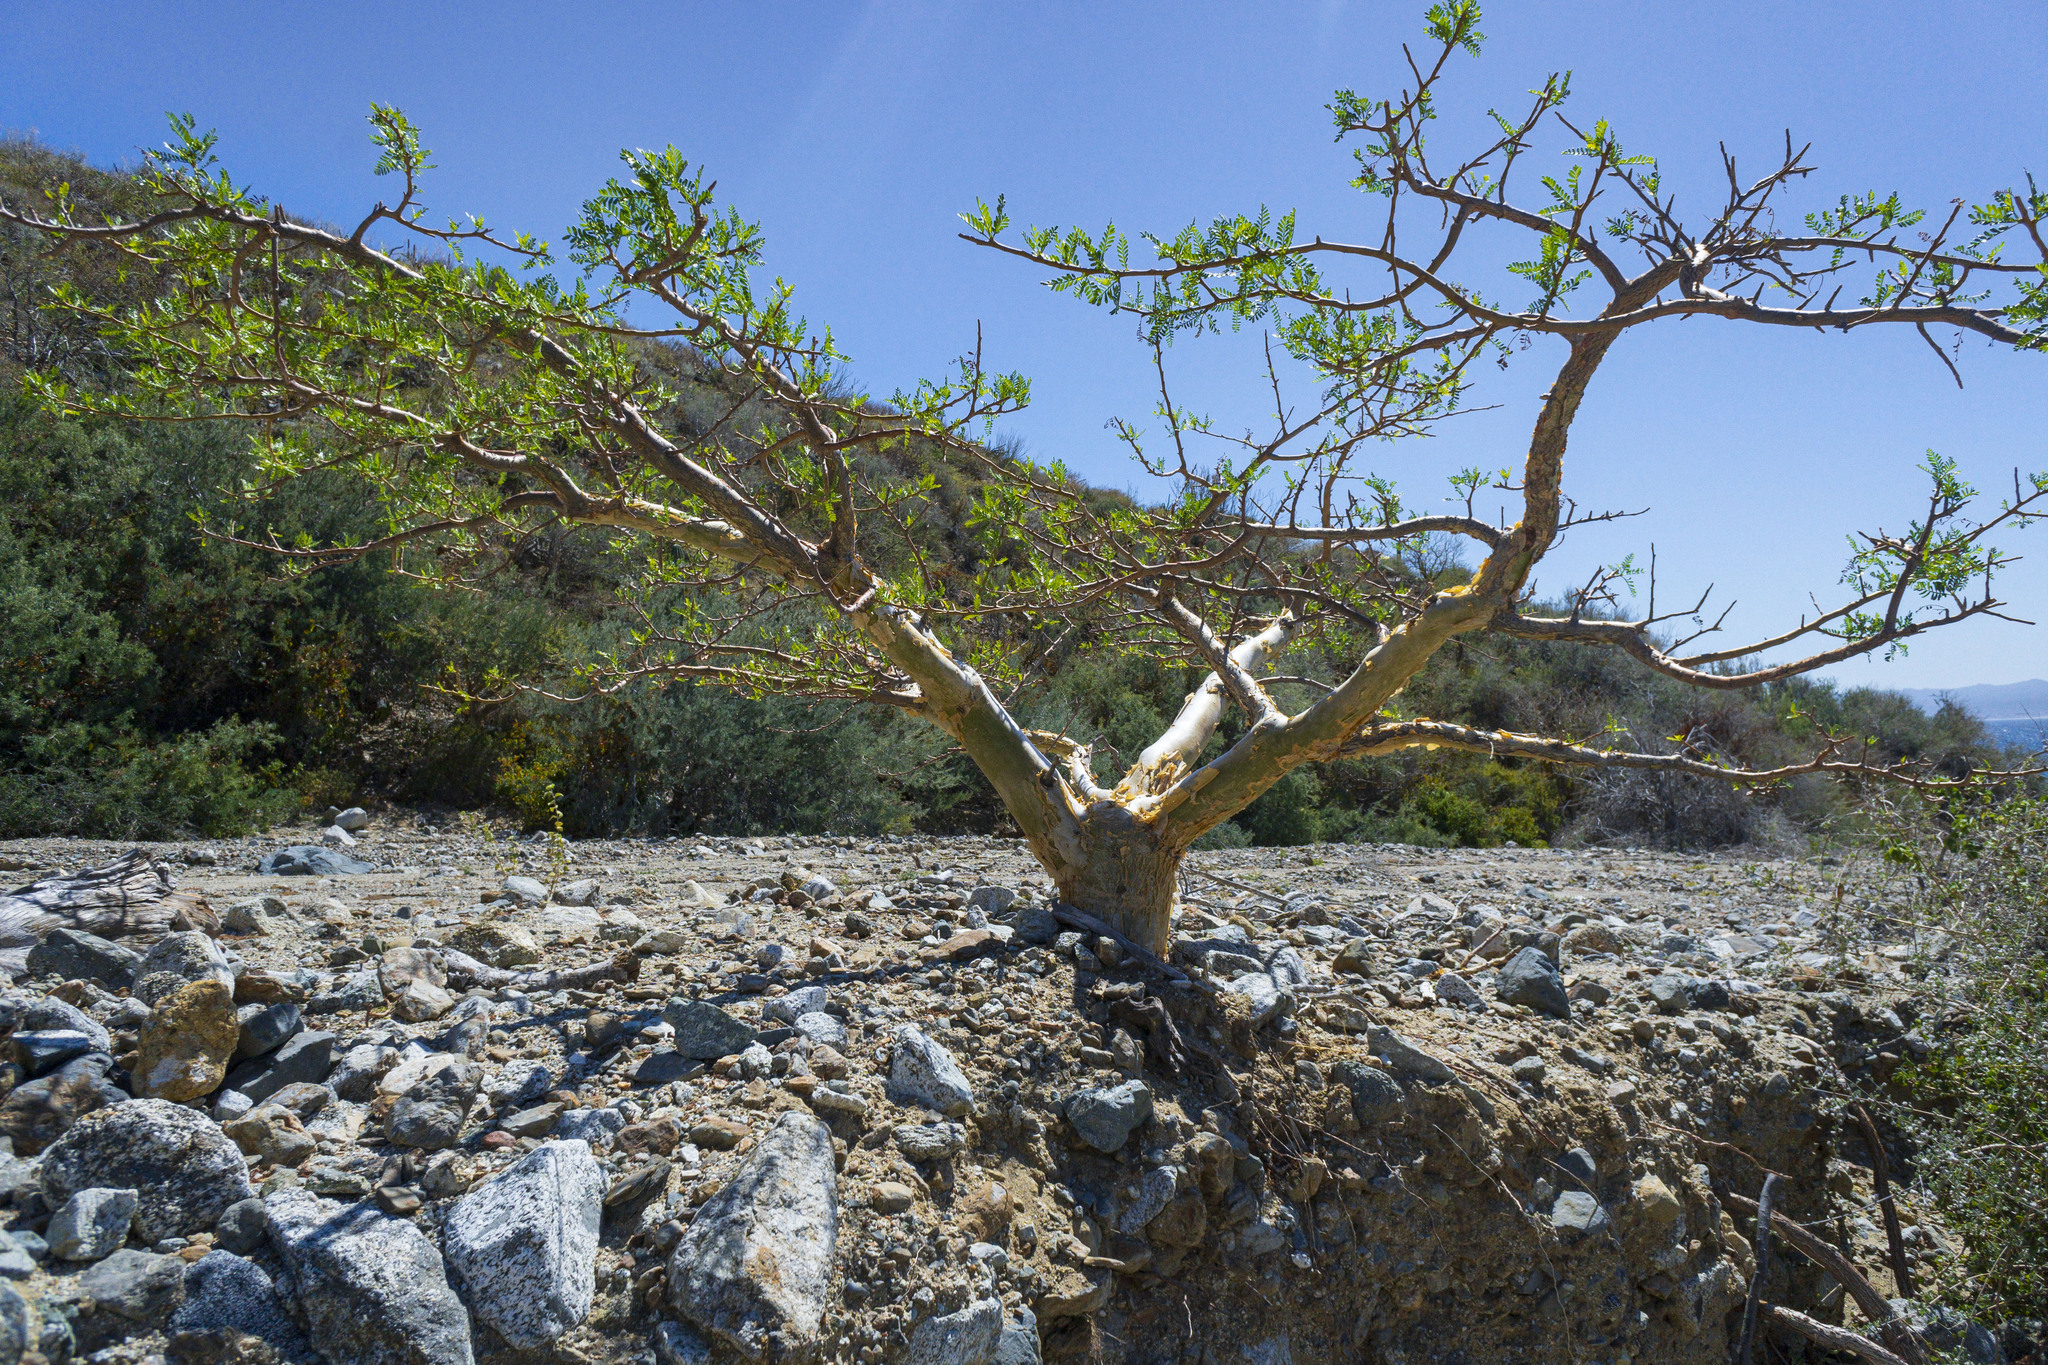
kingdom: Plantae
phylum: Tracheophyta
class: Magnoliopsida
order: Sapindales
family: Burseraceae
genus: Bursera
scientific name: Bursera microphylla
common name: Elephant tree
